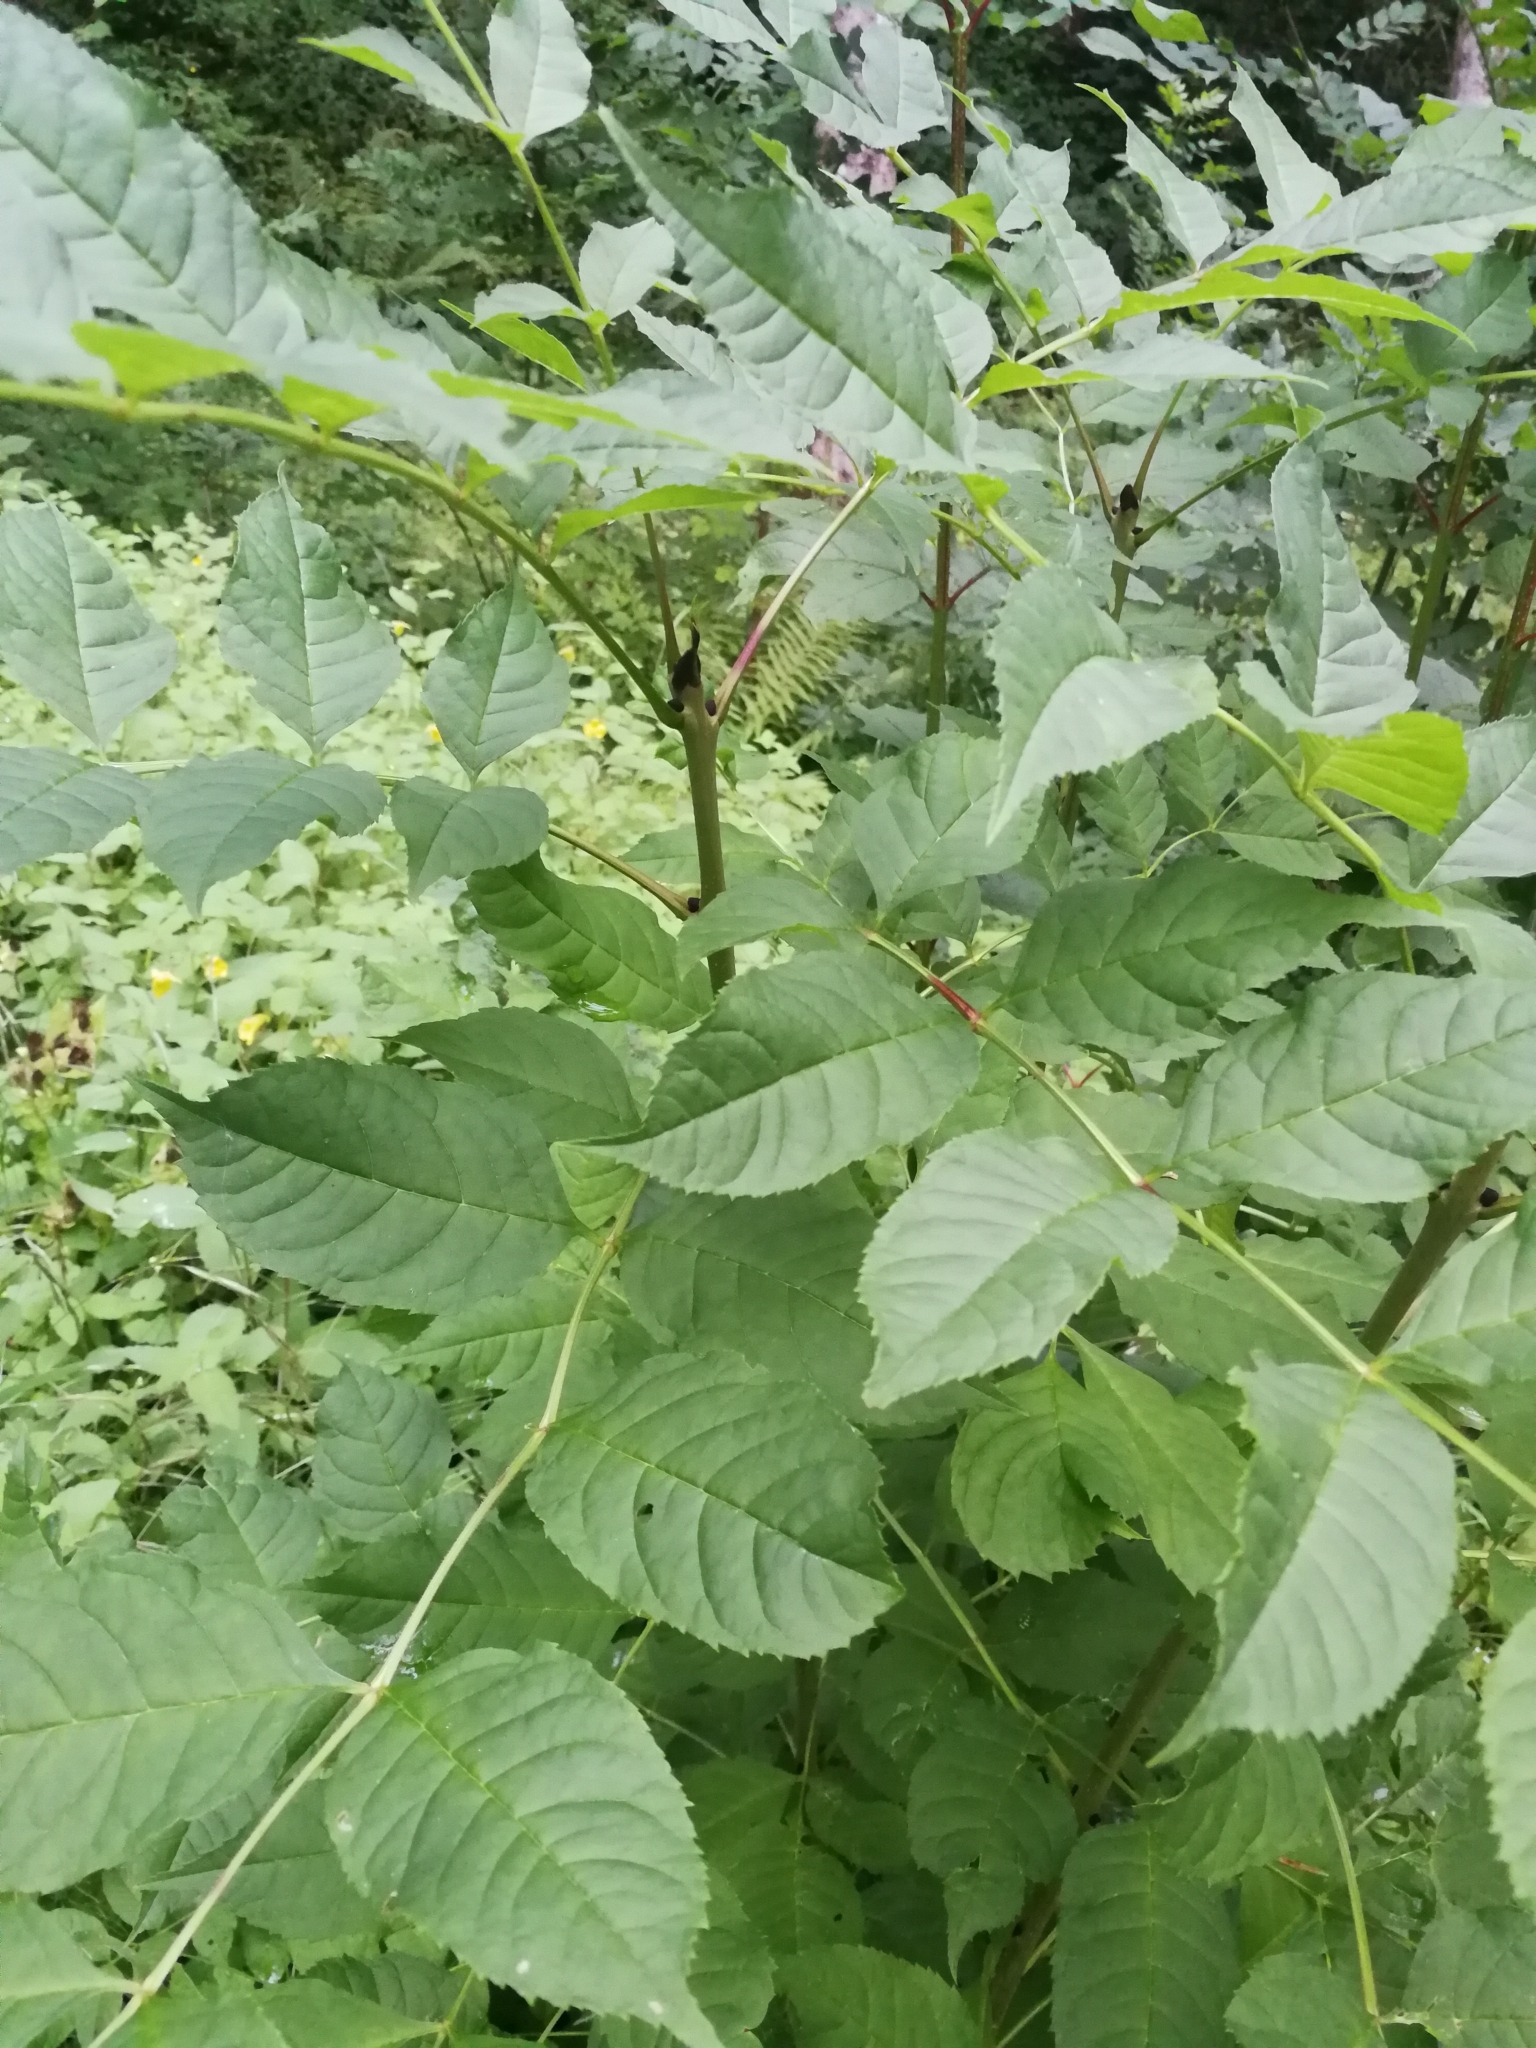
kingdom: Plantae
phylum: Tracheophyta
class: Magnoliopsida
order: Lamiales
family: Oleaceae
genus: Fraxinus
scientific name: Fraxinus excelsior
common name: European ash
